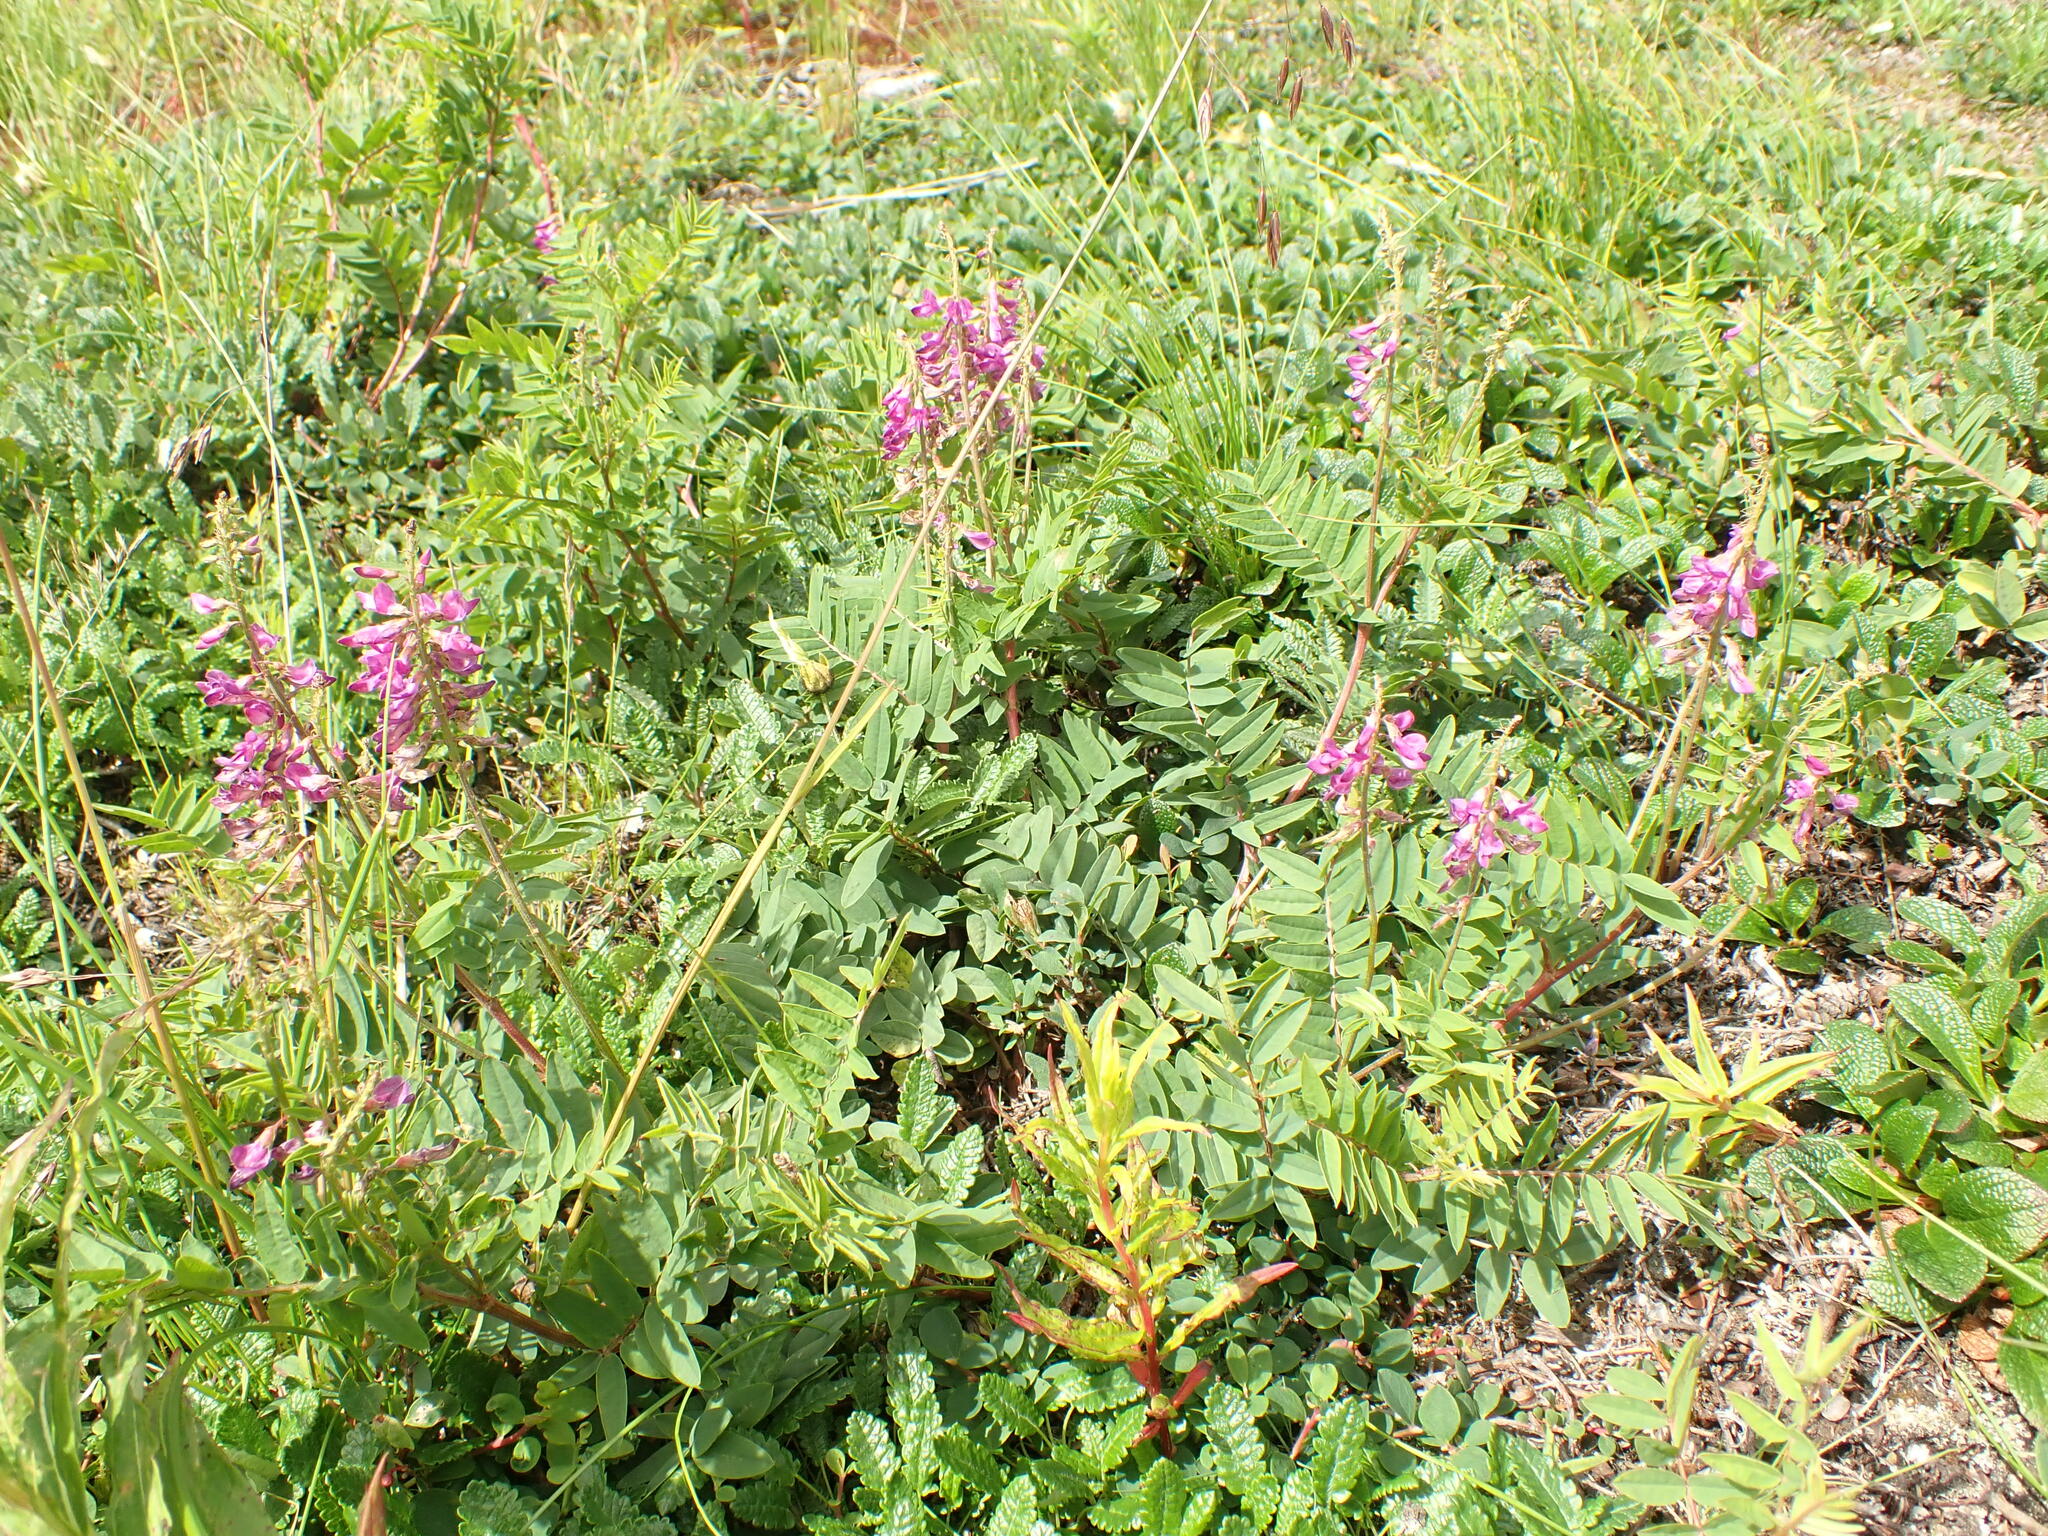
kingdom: Plantae
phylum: Tracheophyta
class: Magnoliopsida
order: Fabales
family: Fabaceae
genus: Hedysarum
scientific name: Hedysarum alpinum
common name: Alpine sweet-vetch
